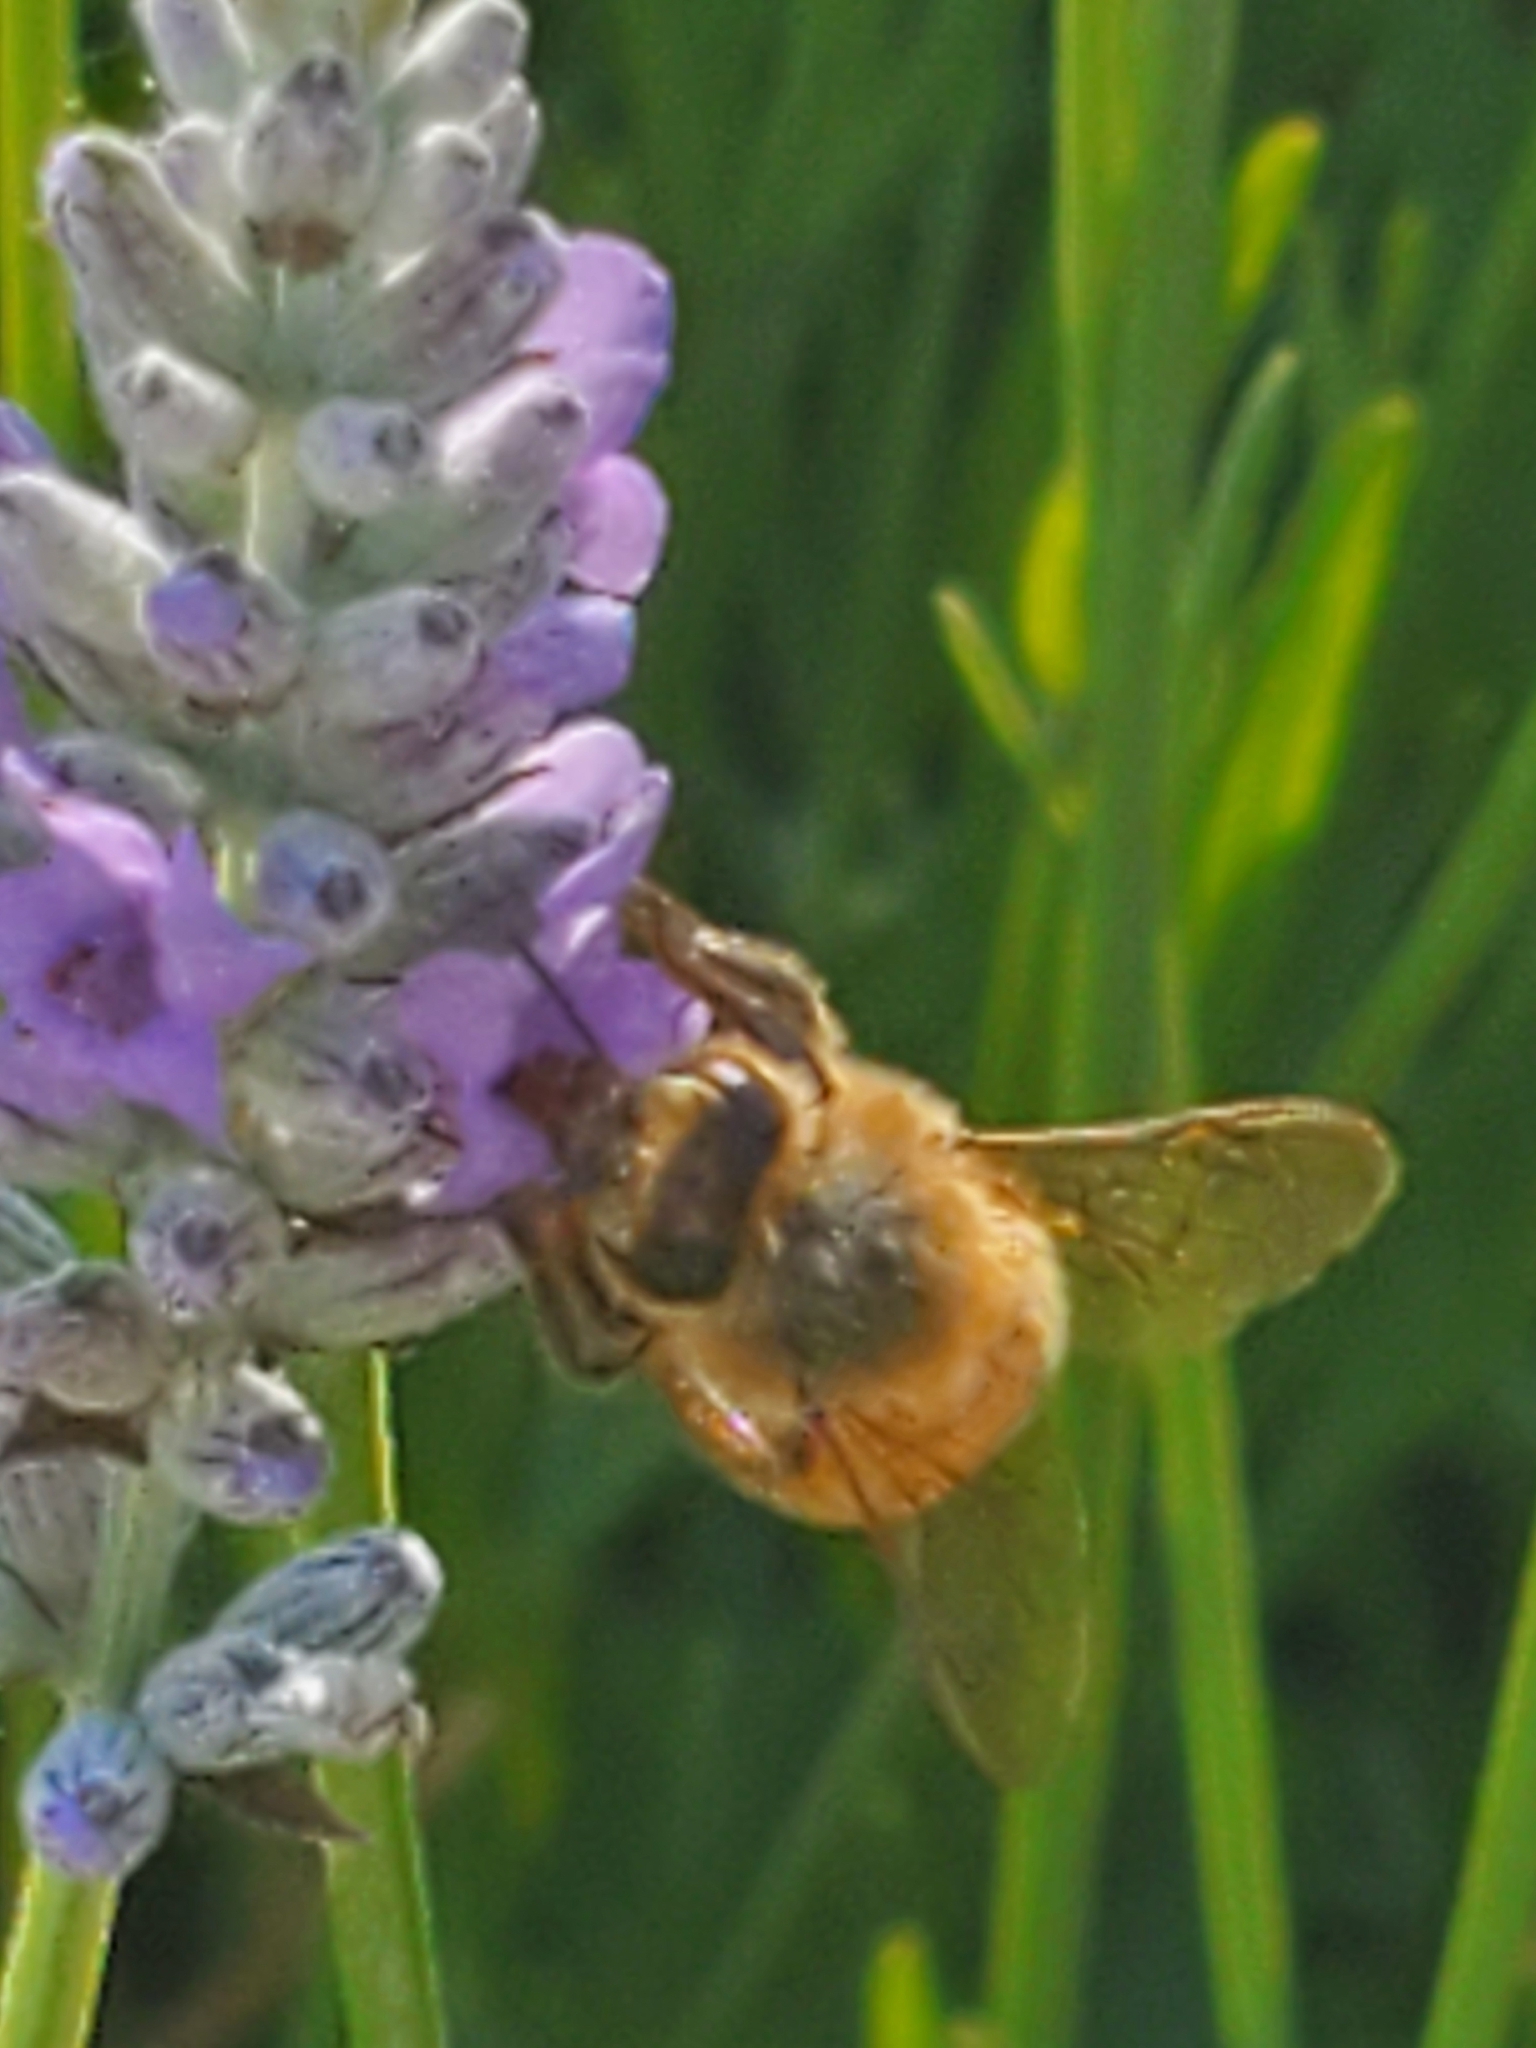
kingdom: Animalia
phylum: Arthropoda
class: Insecta
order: Hymenoptera
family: Apidae
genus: Apis
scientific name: Apis mellifera
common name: Honey bee
